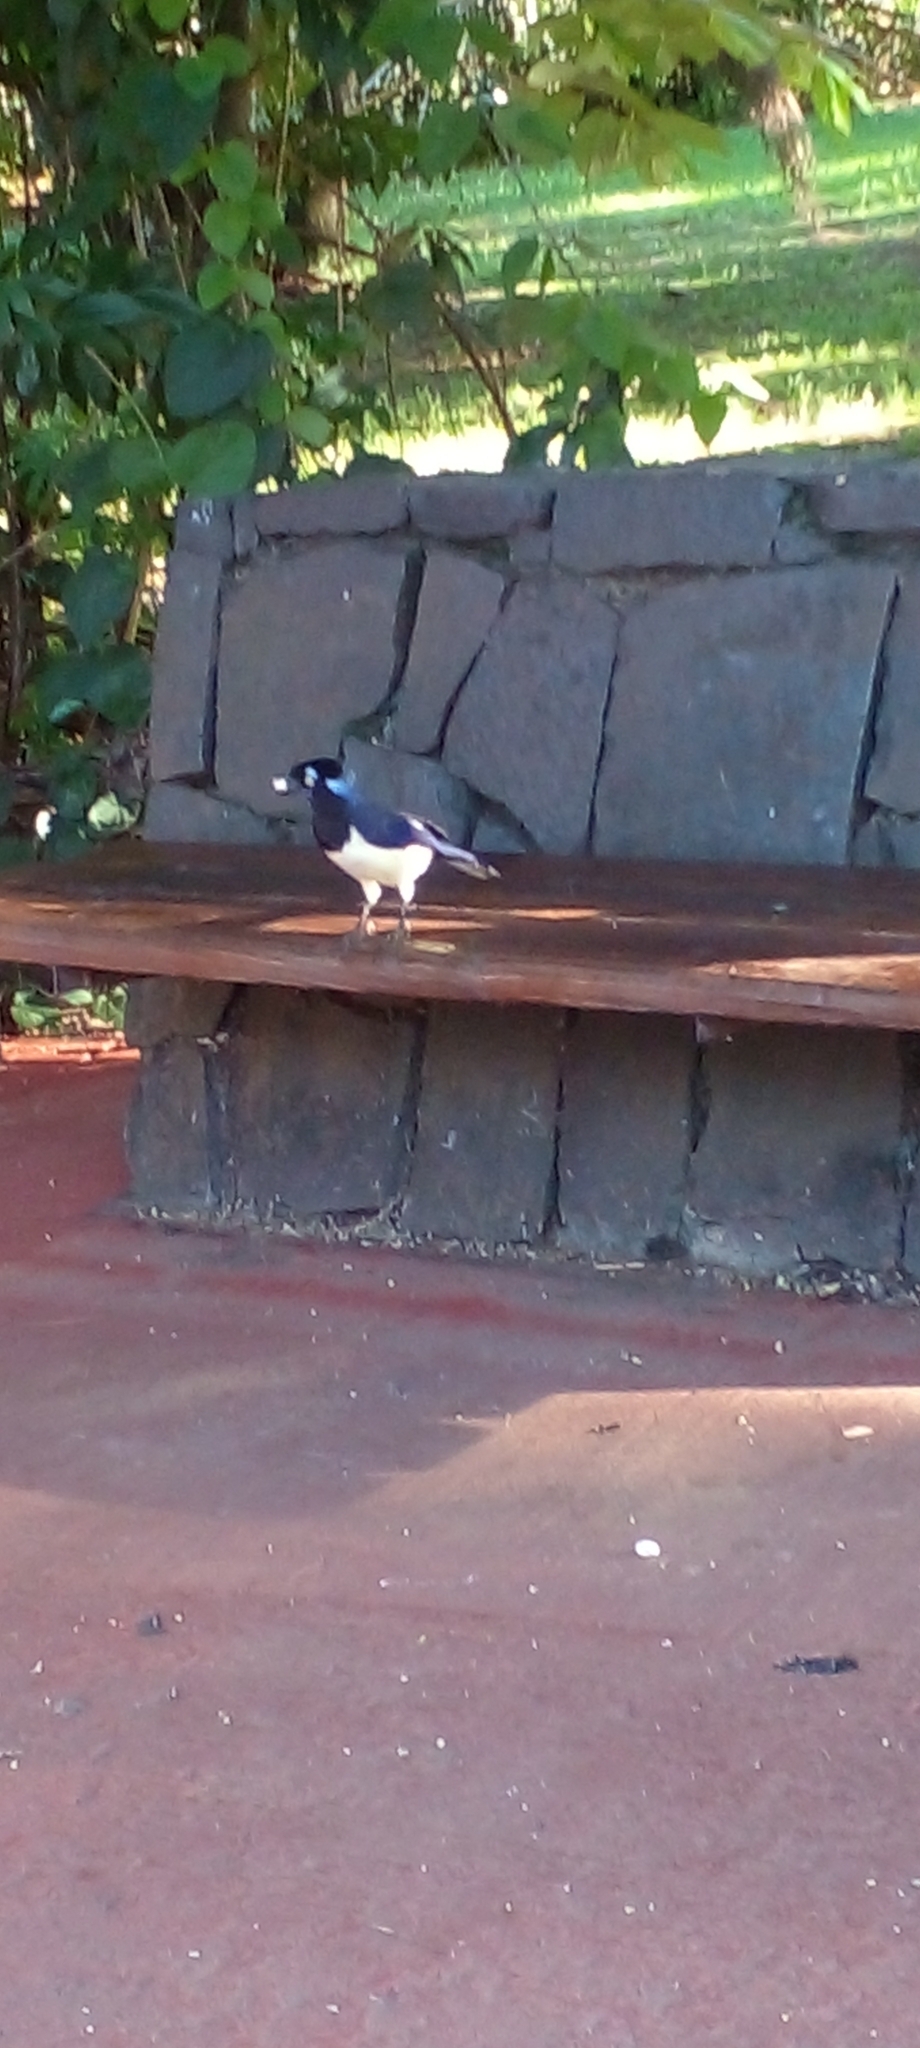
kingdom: Animalia
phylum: Chordata
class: Aves
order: Passeriformes
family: Corvidae
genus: Cyanocorax
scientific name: Cyanocorax chrysops
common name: Plush-crested jay
